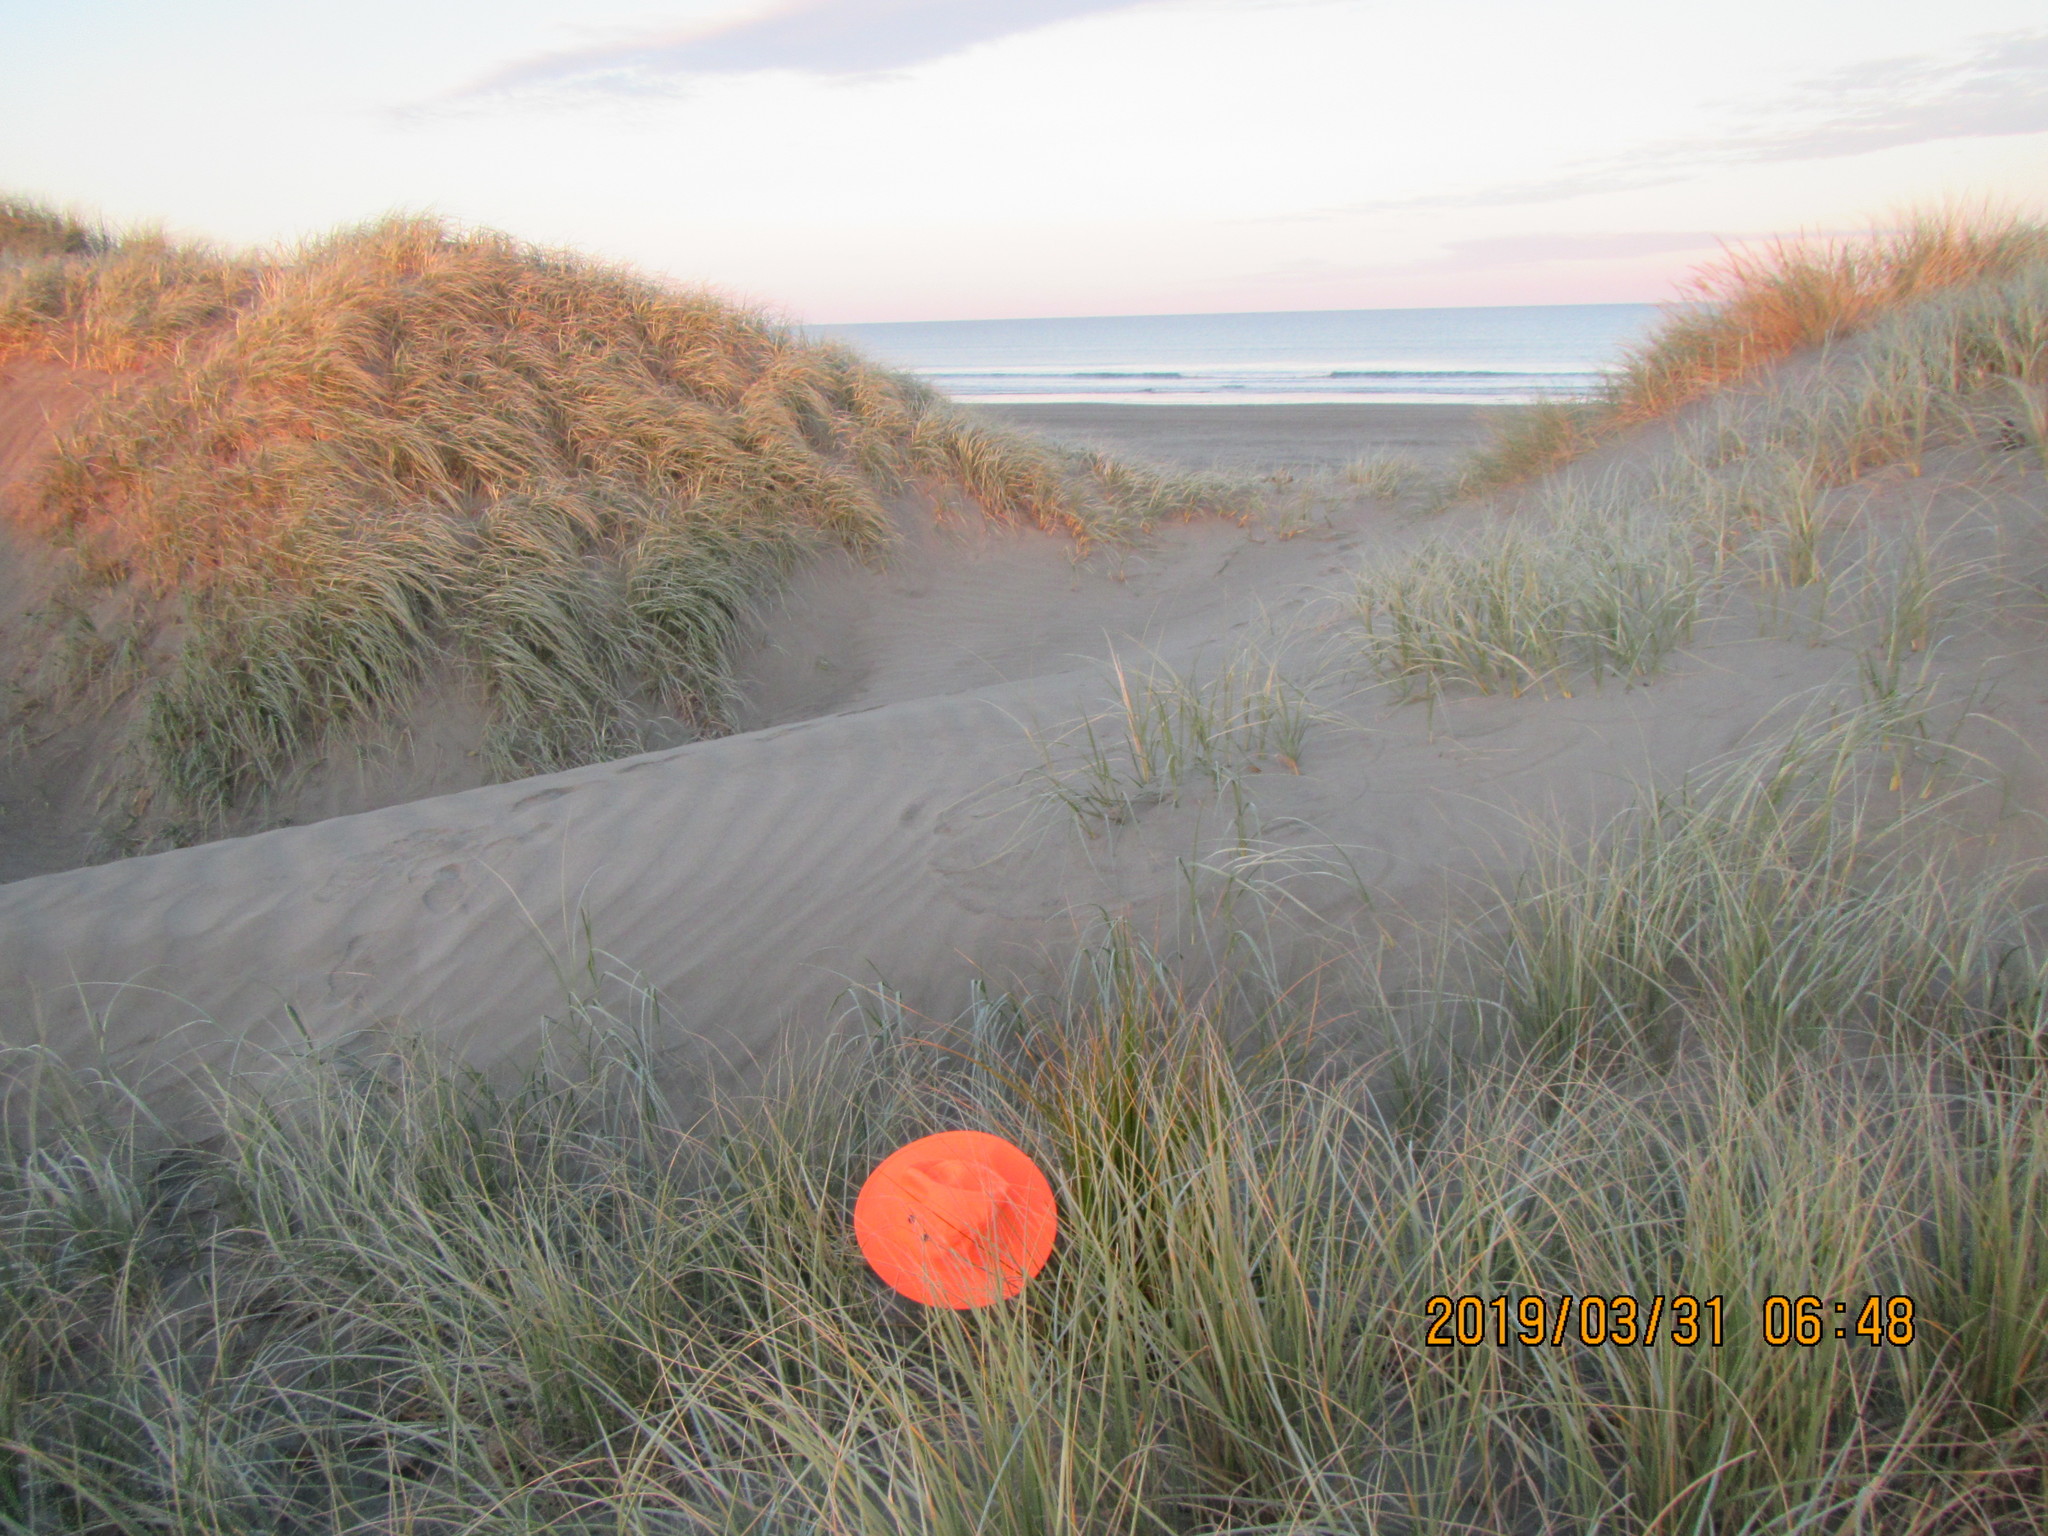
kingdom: Plantae
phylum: Tracheophyta
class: Liliopsida
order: Poales
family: Cyperaceae
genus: Ficinia
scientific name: Ficinia spiralis
